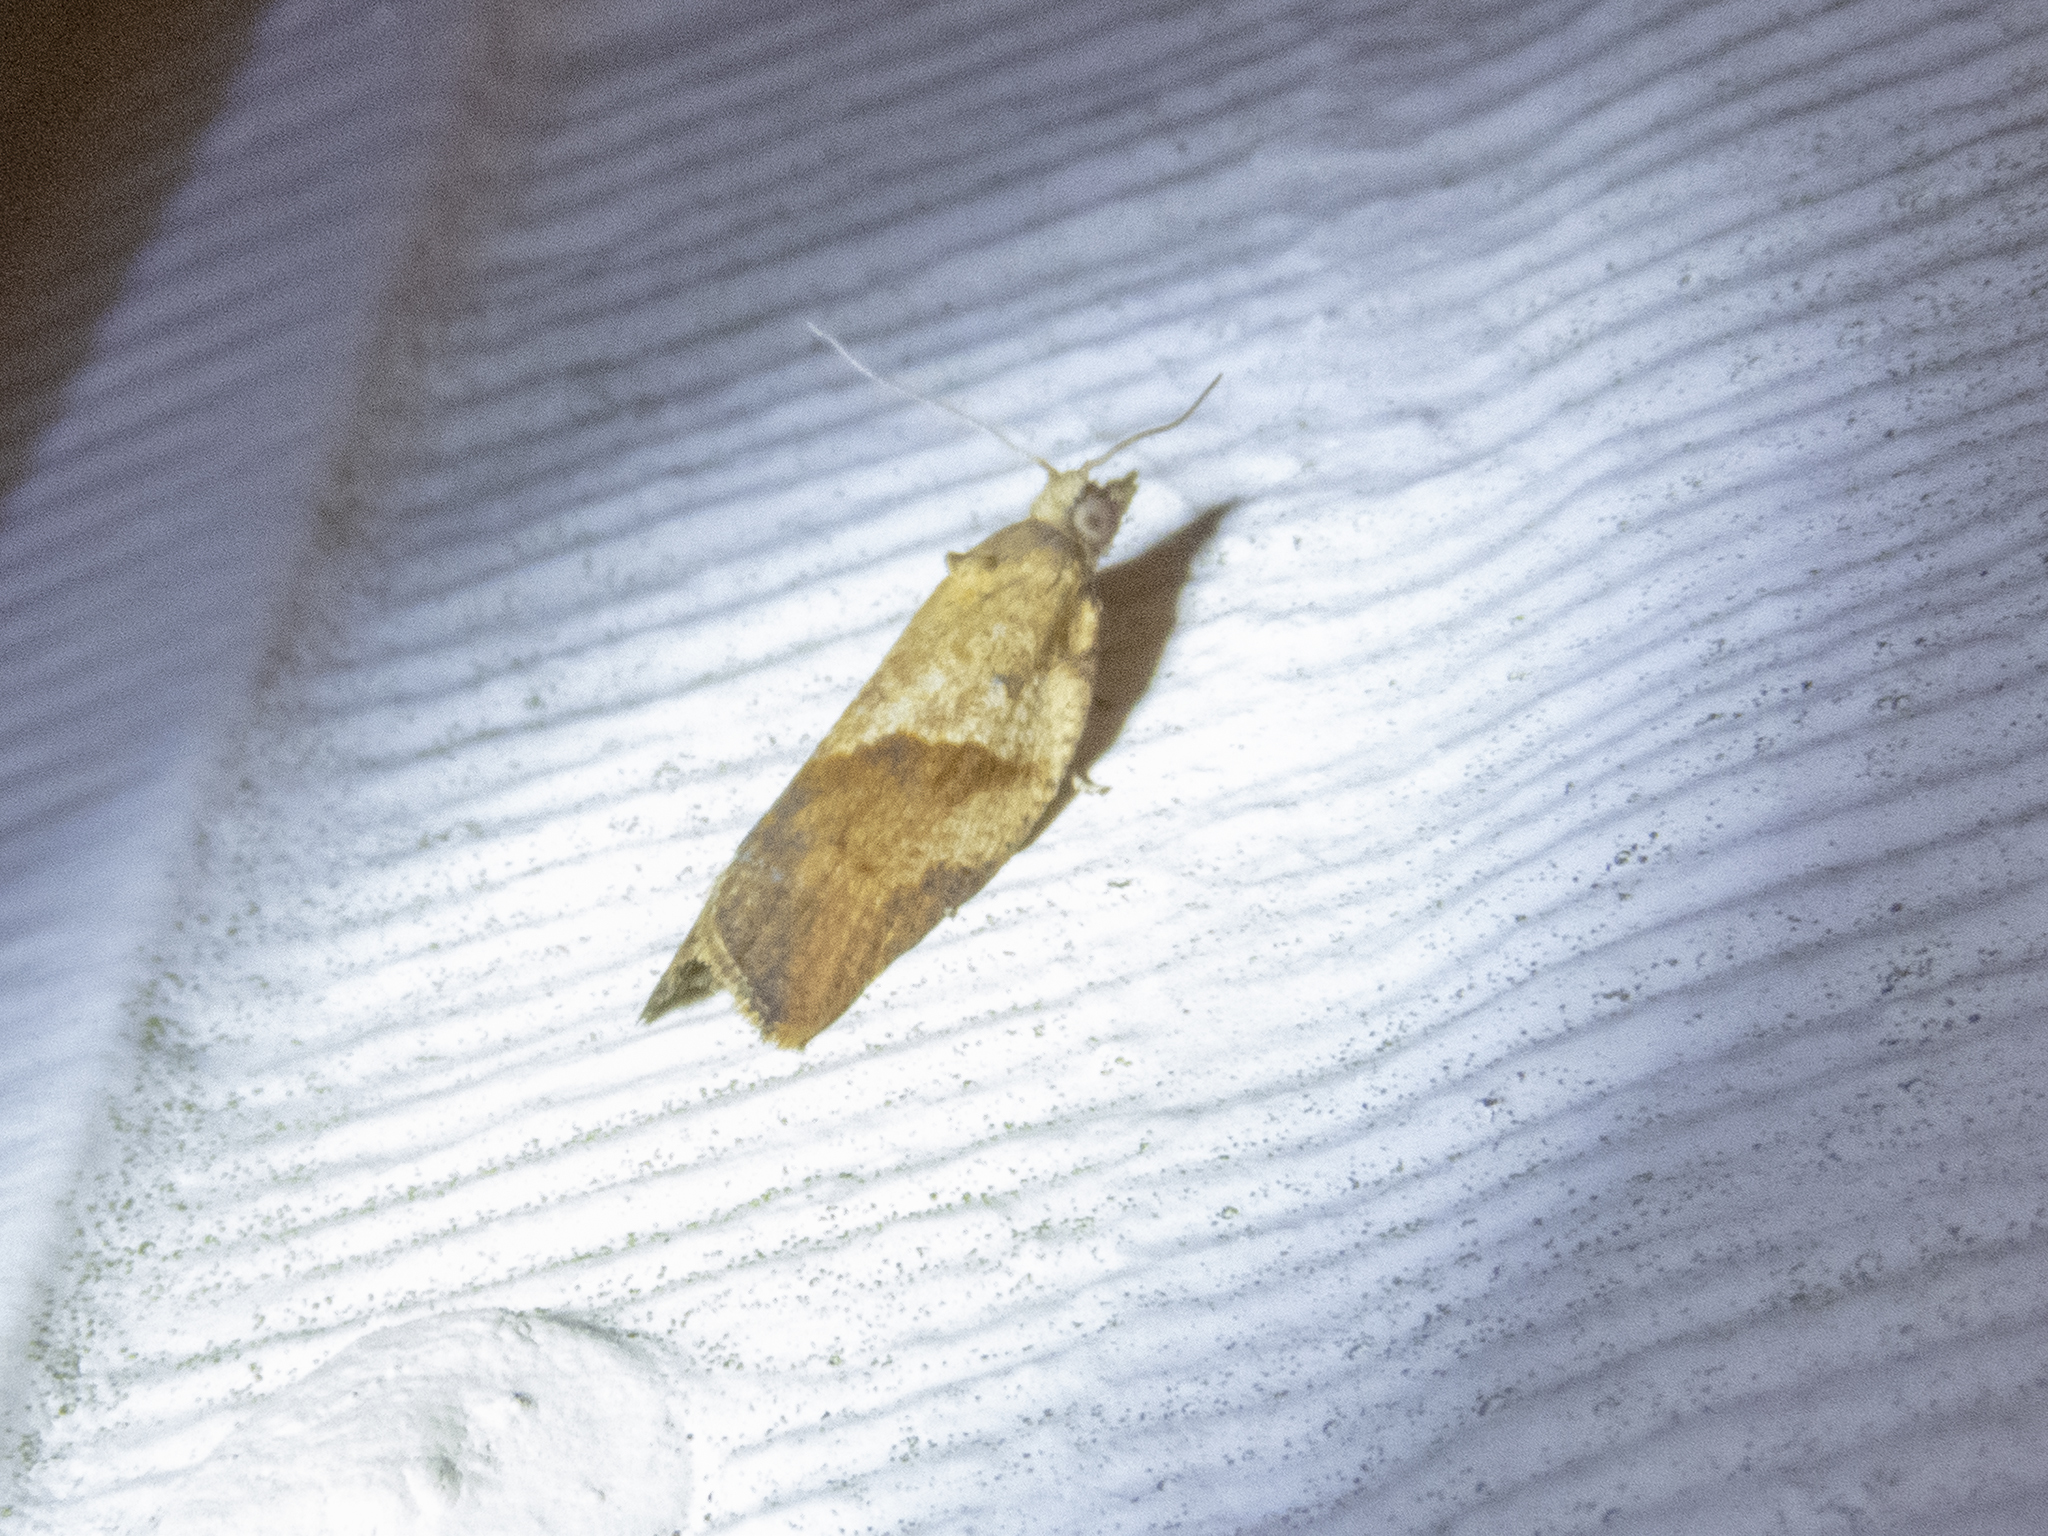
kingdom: Animalia
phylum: Arthropoda
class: Insecta
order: Lepidoptera
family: Tortricidae
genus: Epiphyas
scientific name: Epiphyas postvittana
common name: Light brown apple moth
